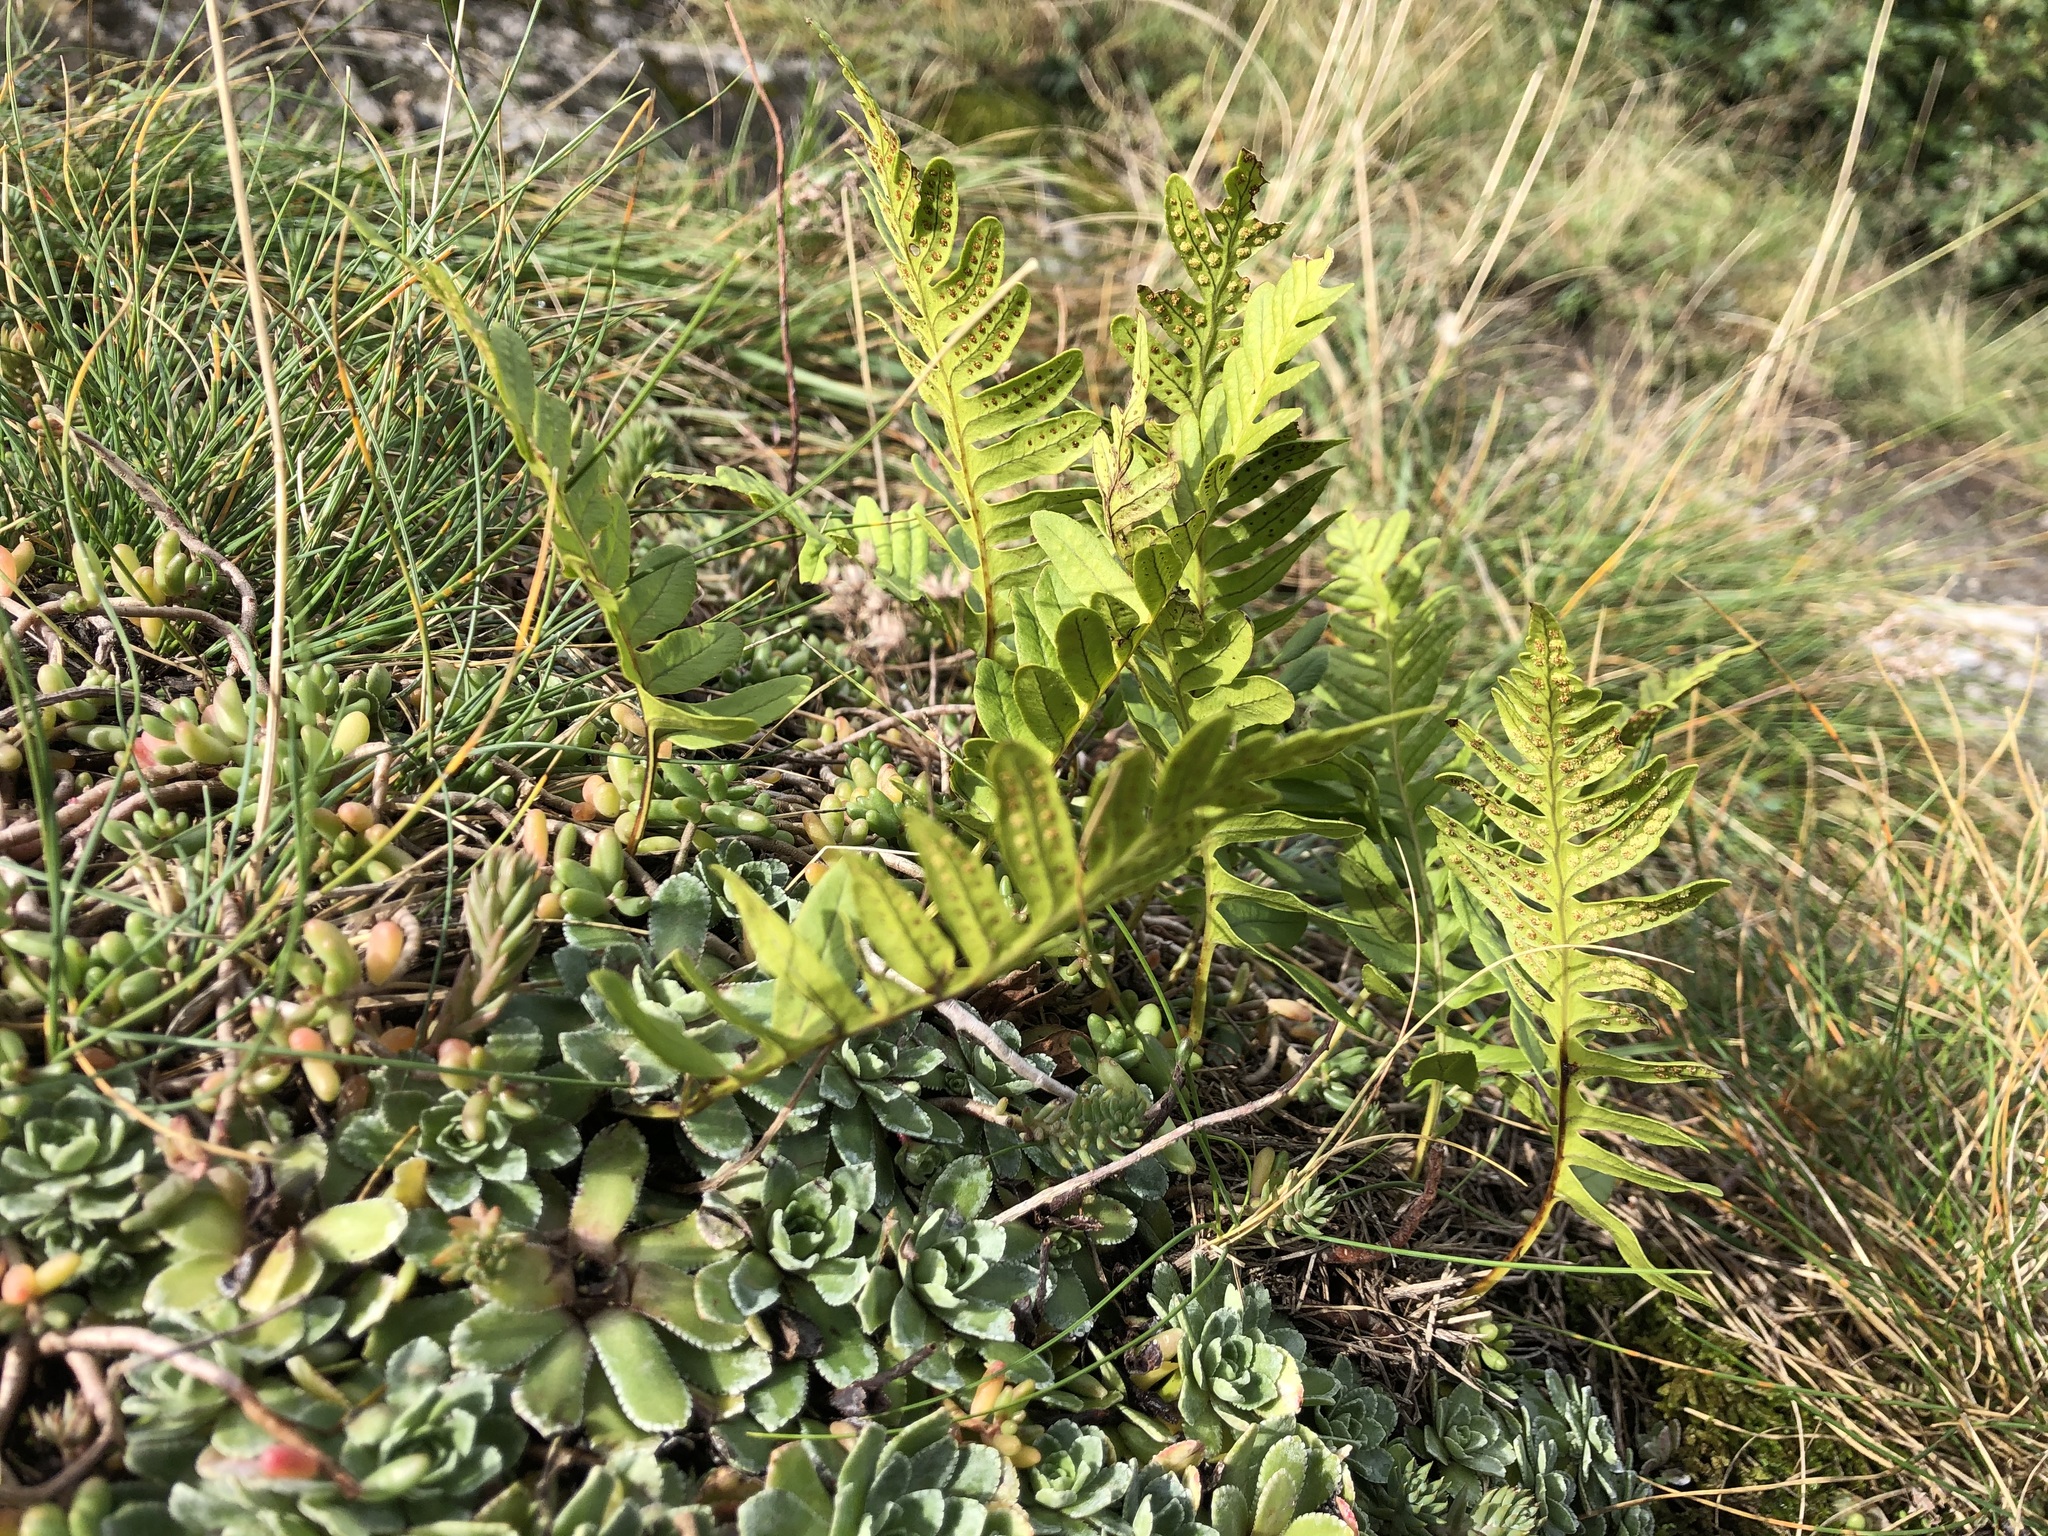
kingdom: Plantae
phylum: Tracheophyta
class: Polypodiopsida
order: Polypodiales
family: Polypodiaceae
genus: Polypodium
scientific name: Polypodium vulgare
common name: Common polypody
